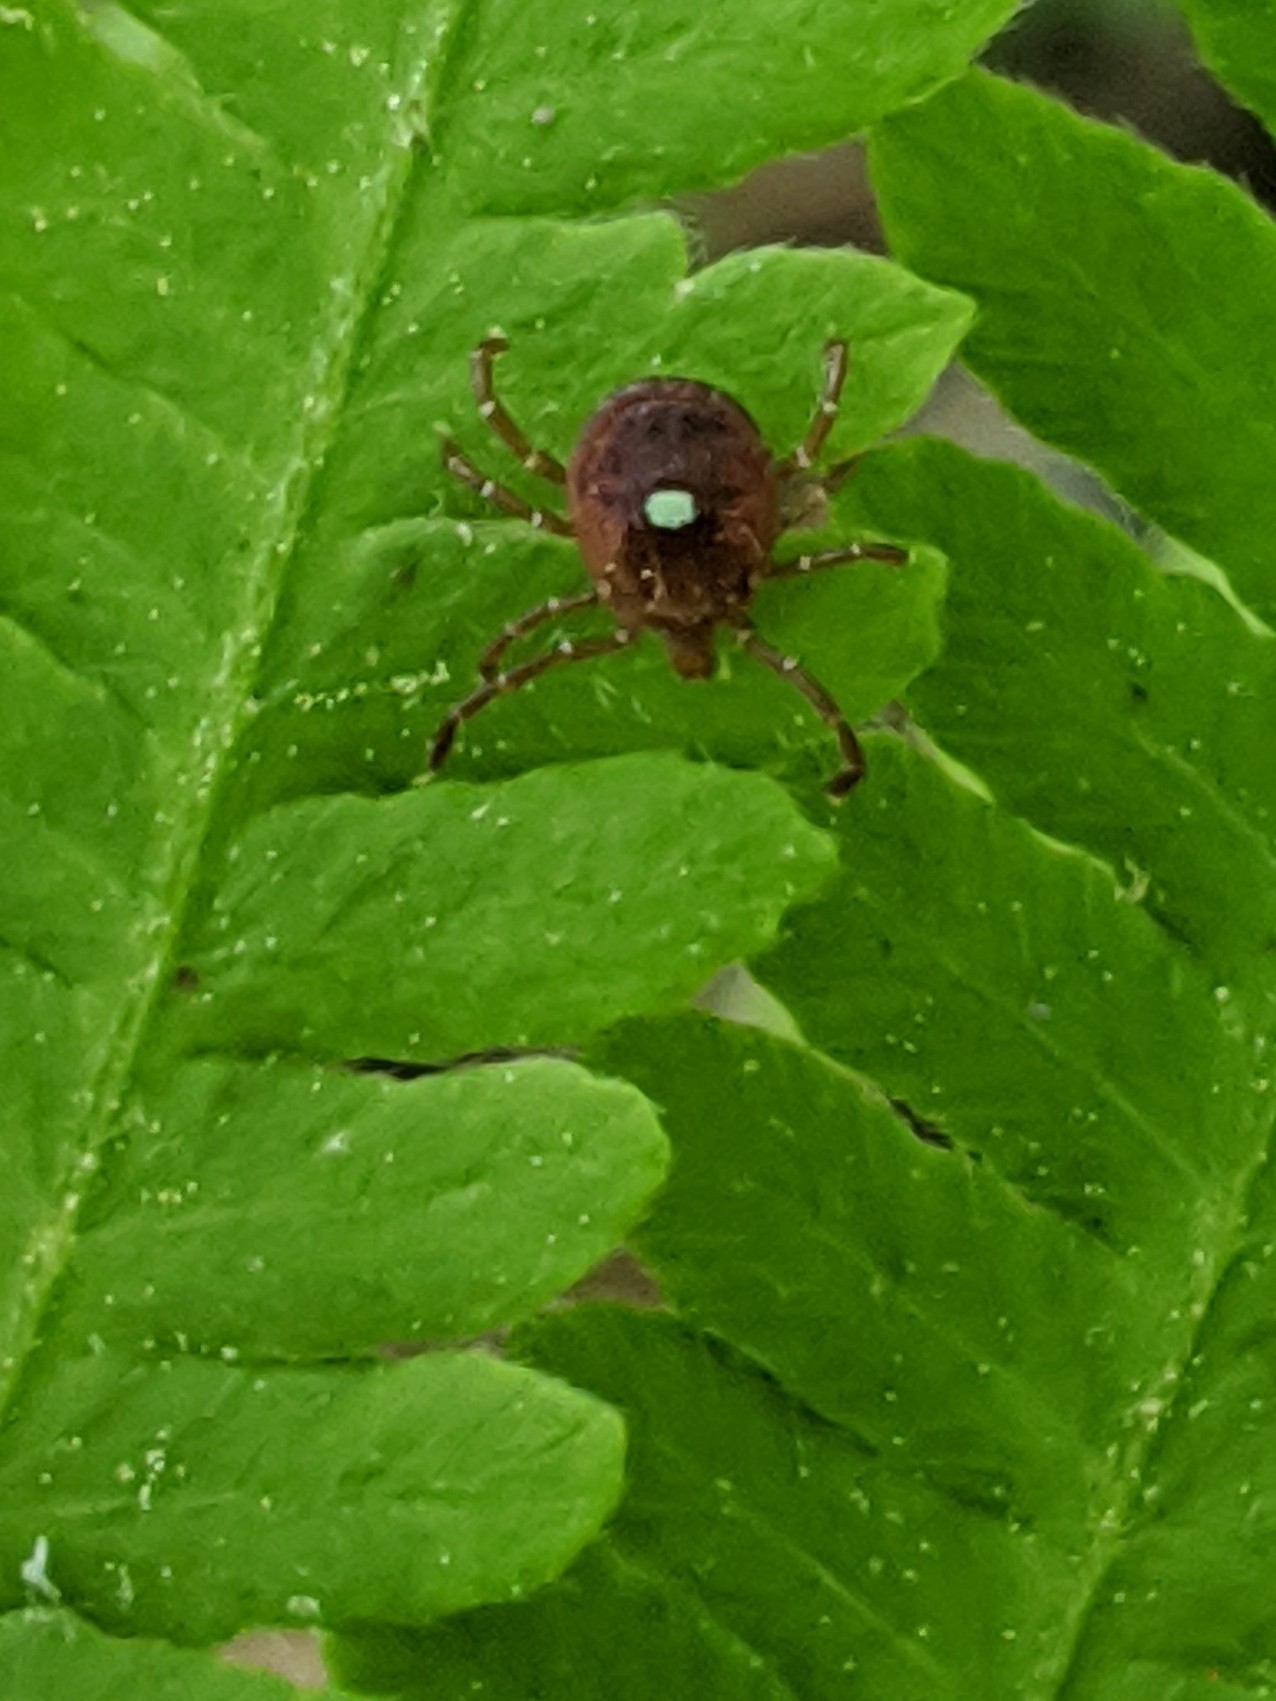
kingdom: Animalia
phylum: Arthropoda
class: Arachnida
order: Ixodida
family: Ixodidae
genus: Amblyomma
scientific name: Amblyomma americanum
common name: Lone star tick
